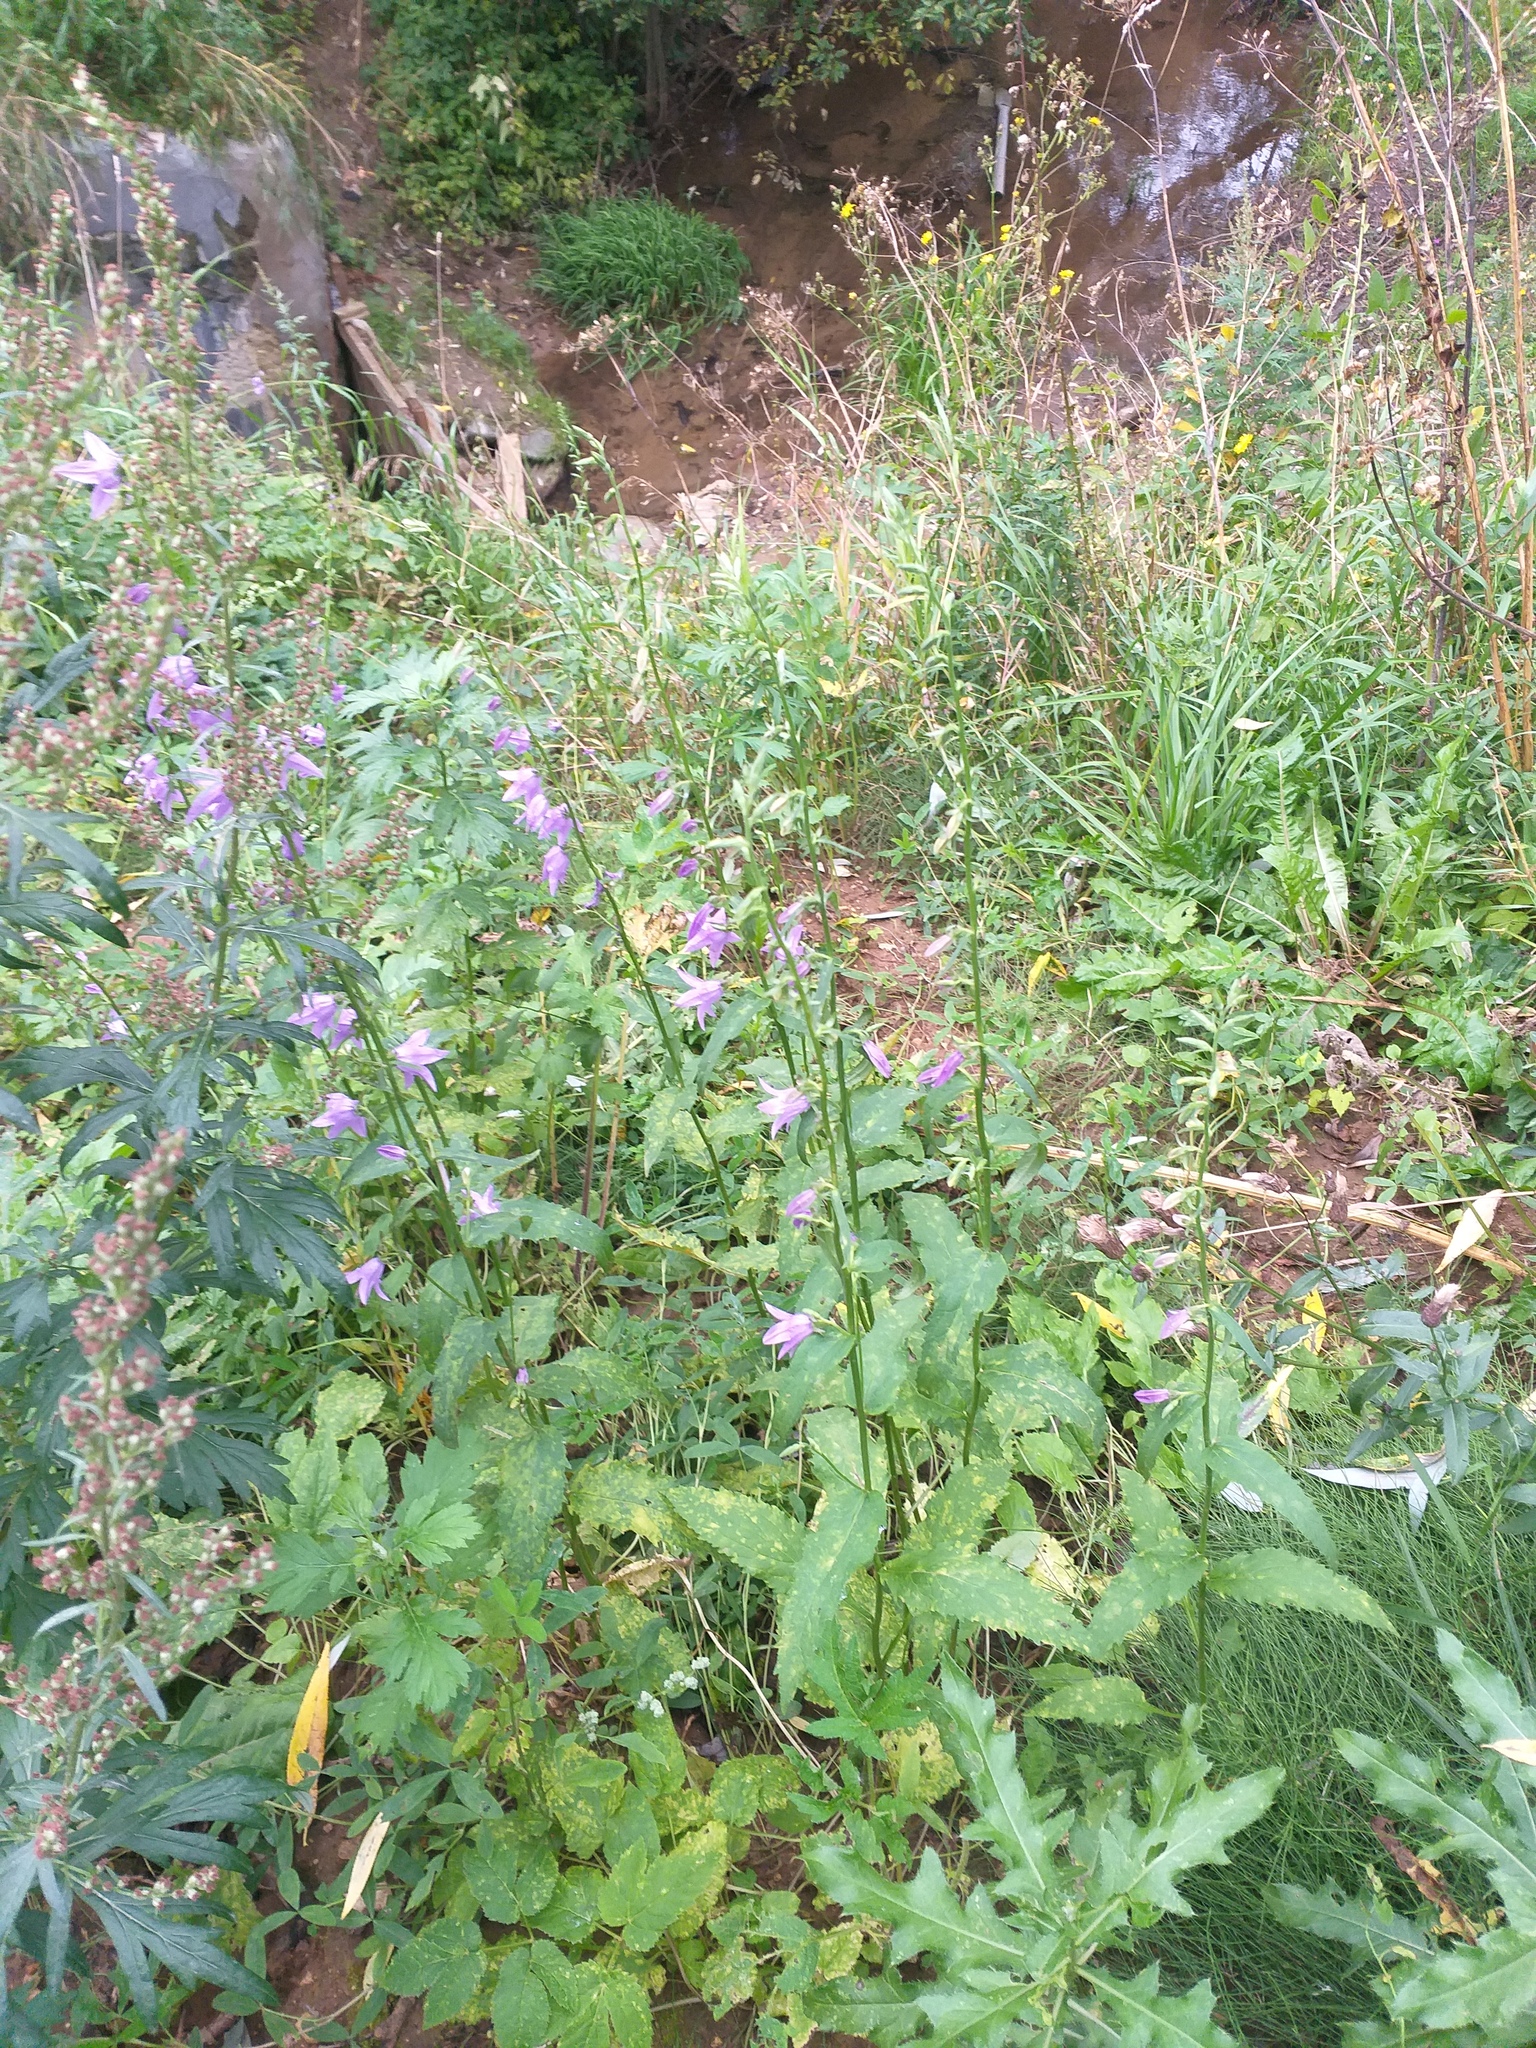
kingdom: Plantae
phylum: Tracheophyta
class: Magnoliopsida
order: Asterales
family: Campanulaceae
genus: Campanula
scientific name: Campanula rapunculoides
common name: Creeping bellflower
